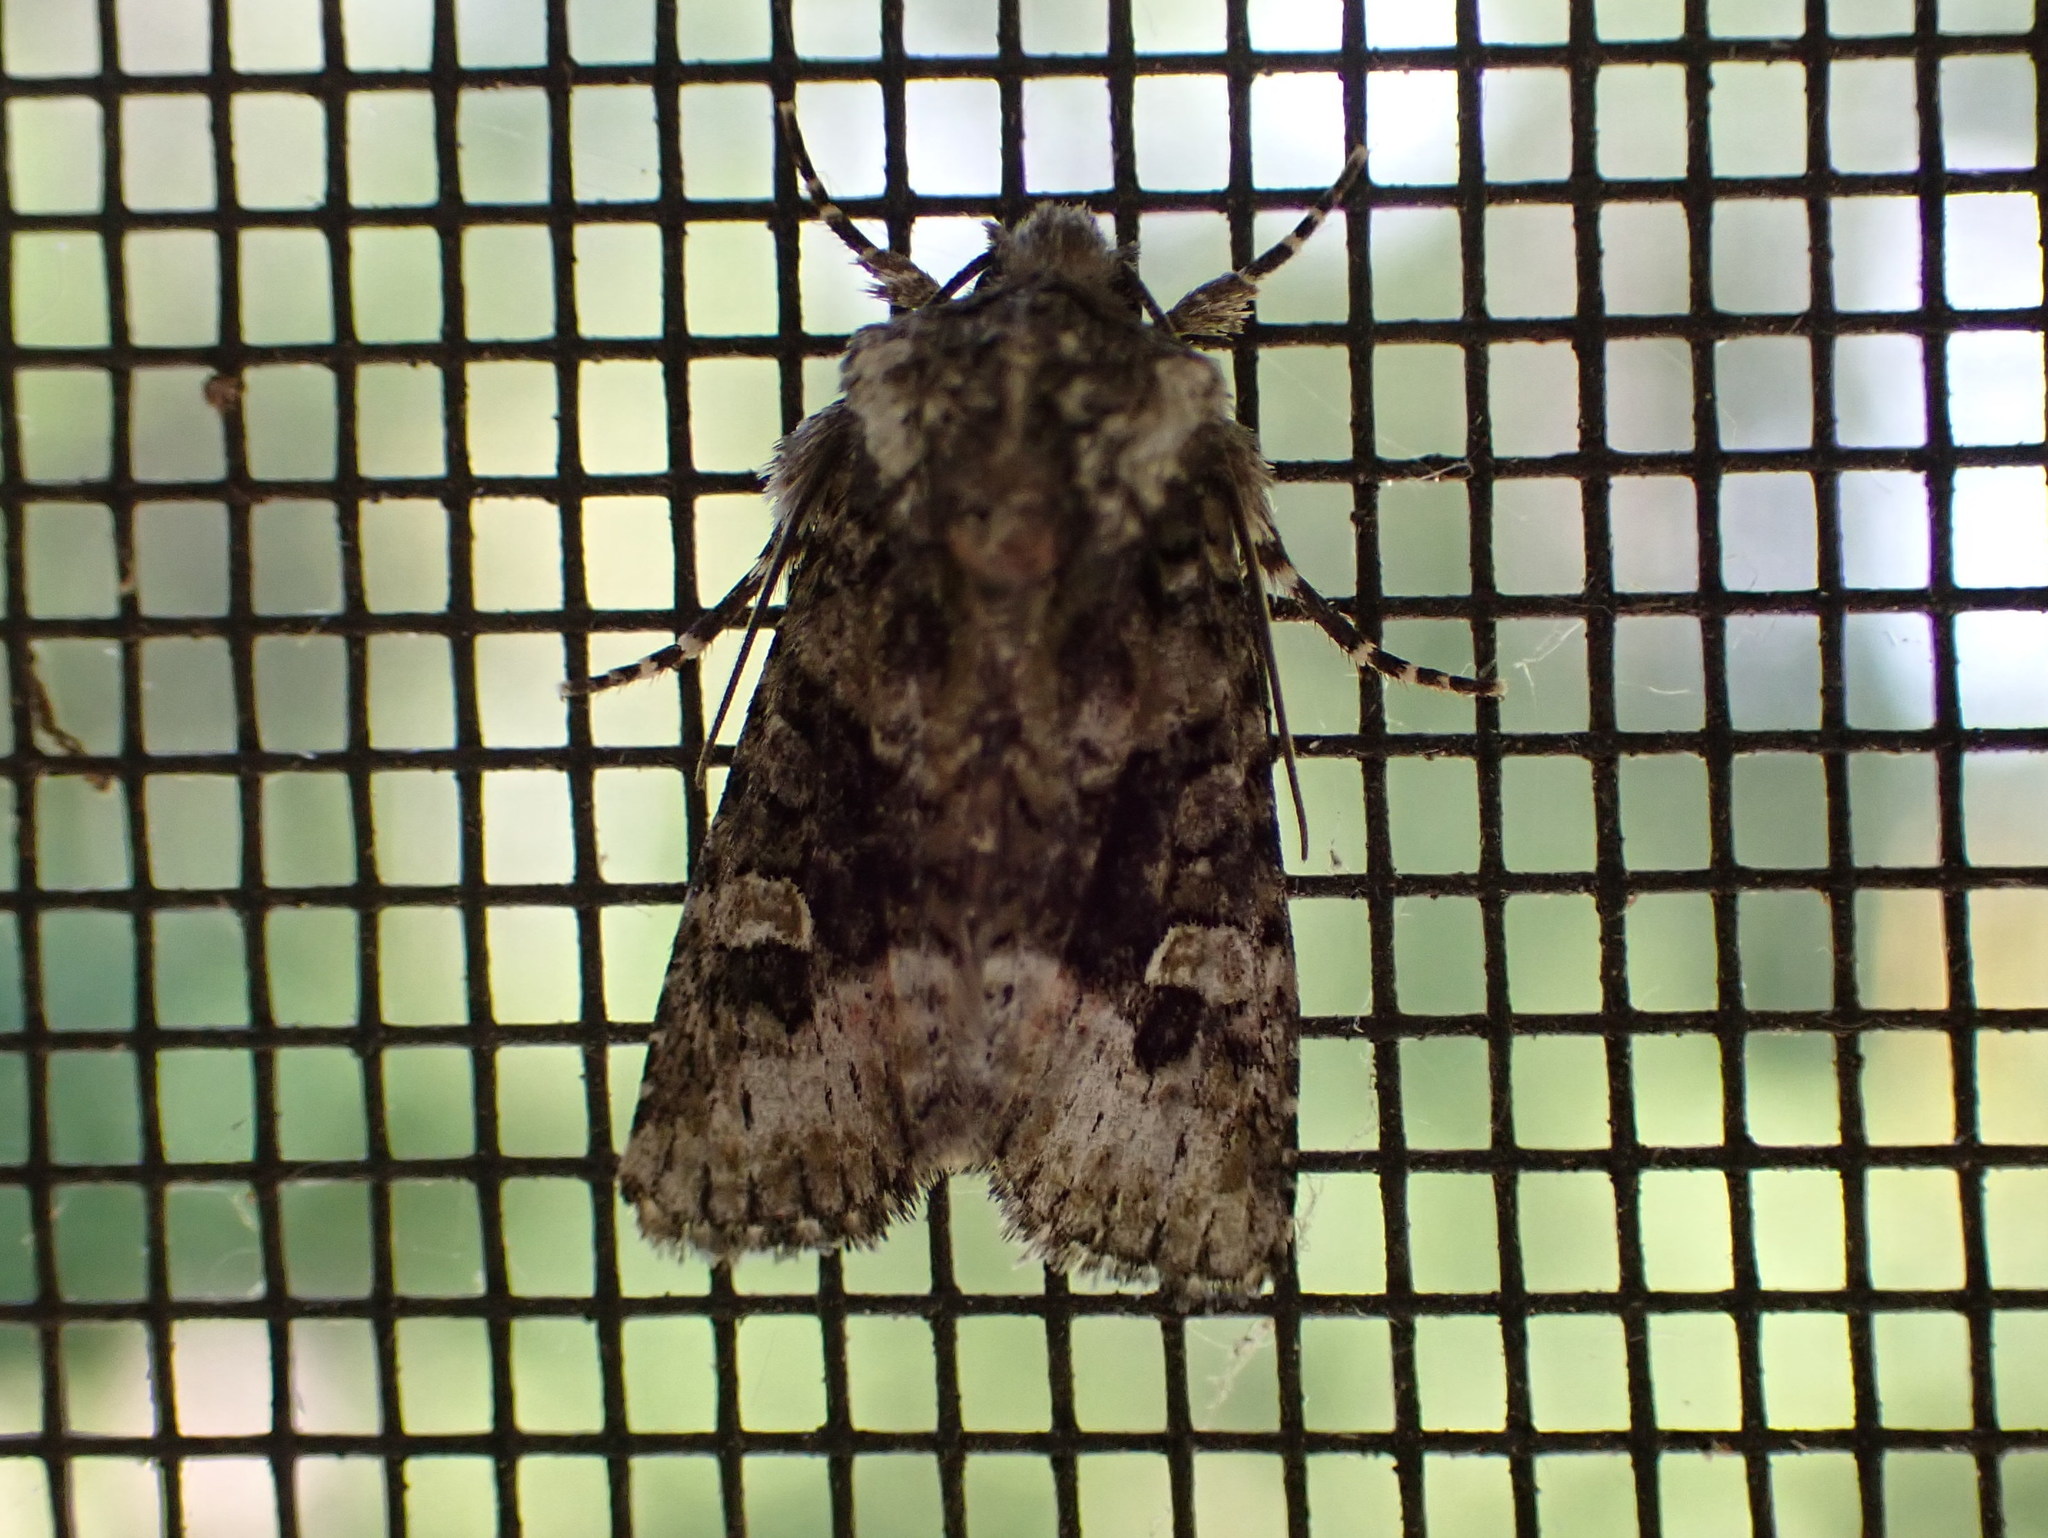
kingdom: Animalia
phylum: Arthropoda
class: Insecta
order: Lepidoptera
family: Noctuidae
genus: Lacinipolia
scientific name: Lacinipolia olivacea
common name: Olive arches moth
